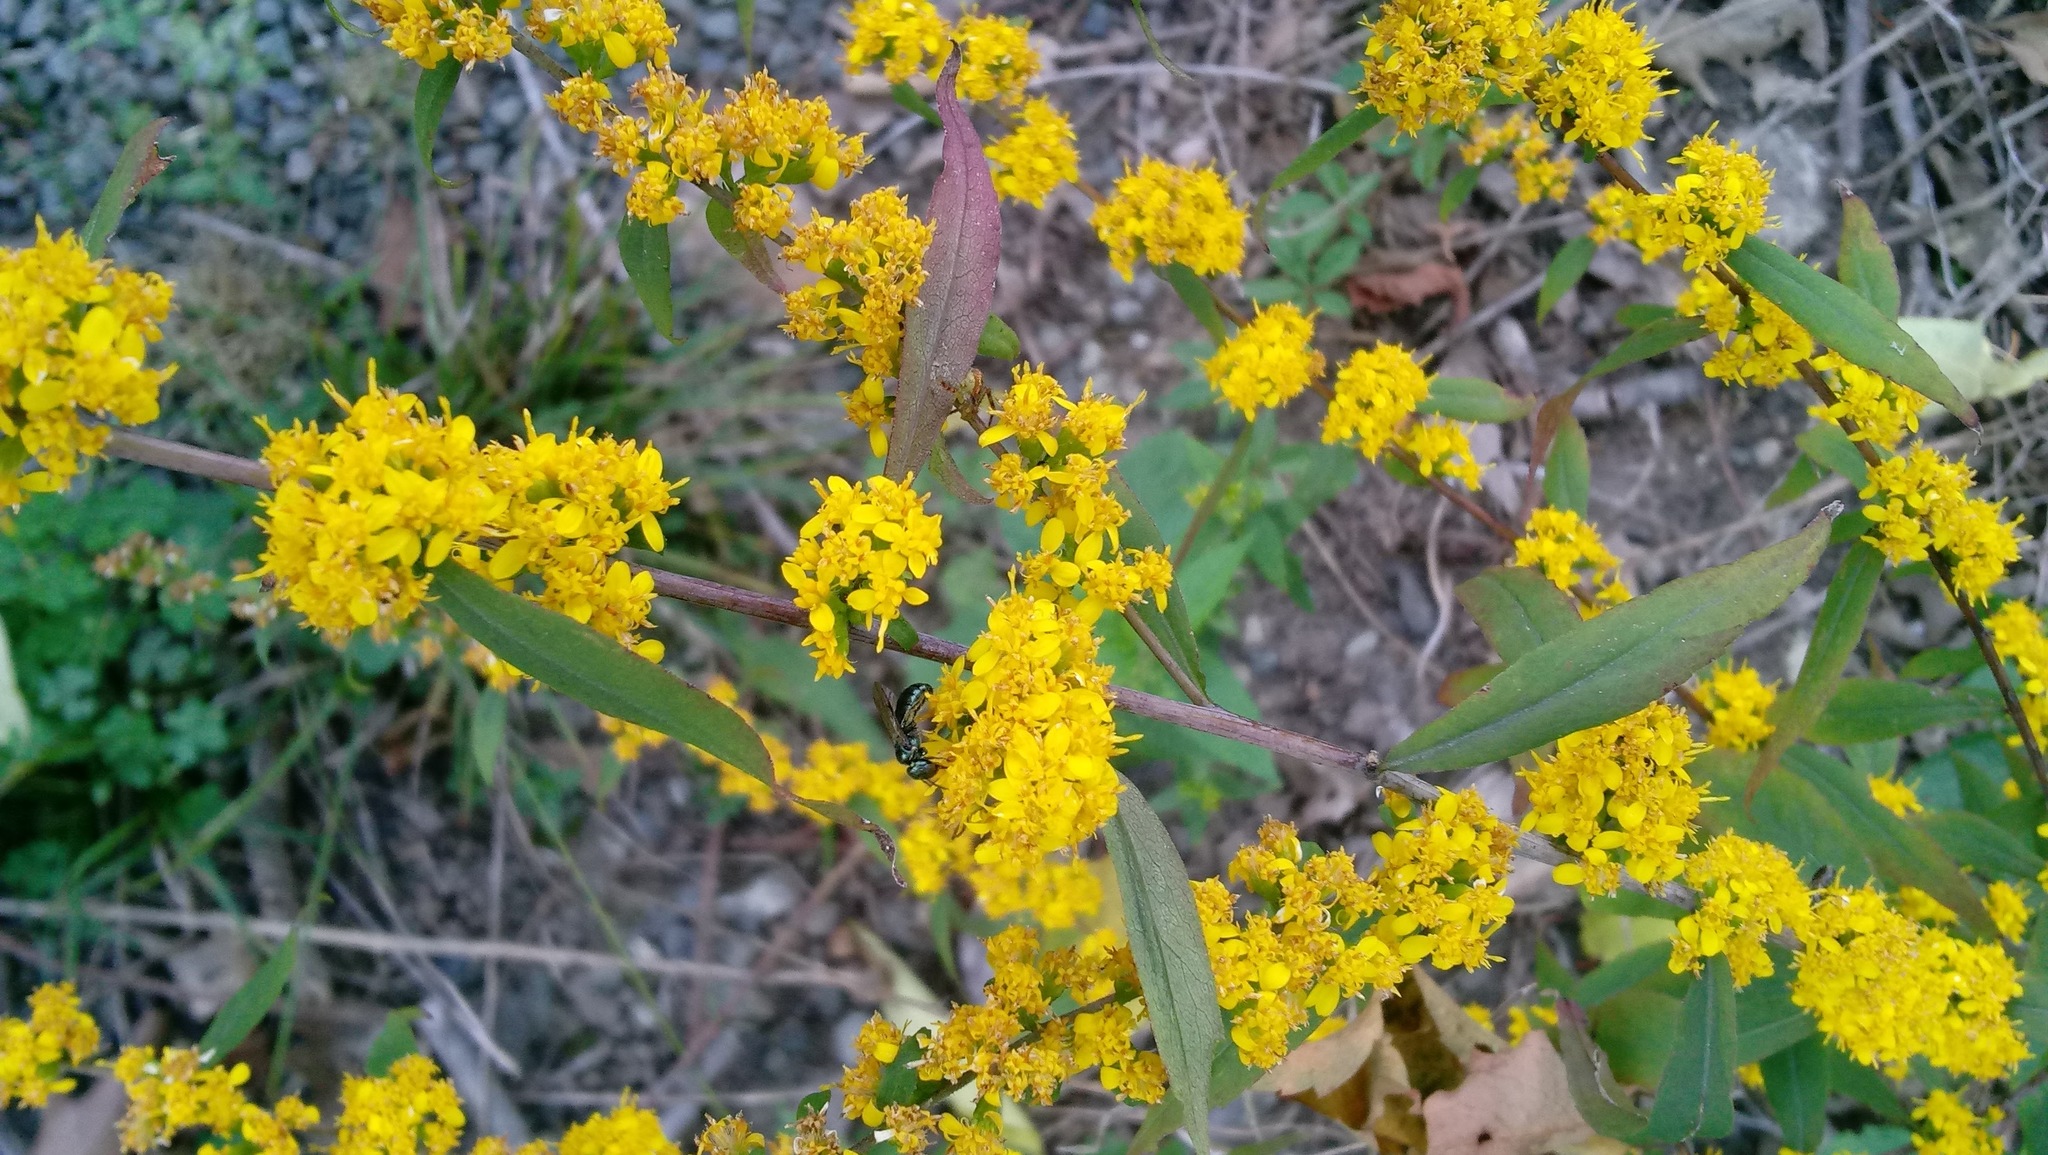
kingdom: Plantae
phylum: Tracheophyta
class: Magnoliopsida
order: Asterales
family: Asteraceae
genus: Solidago
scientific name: Solidago caesia
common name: Woodland goldenrod
